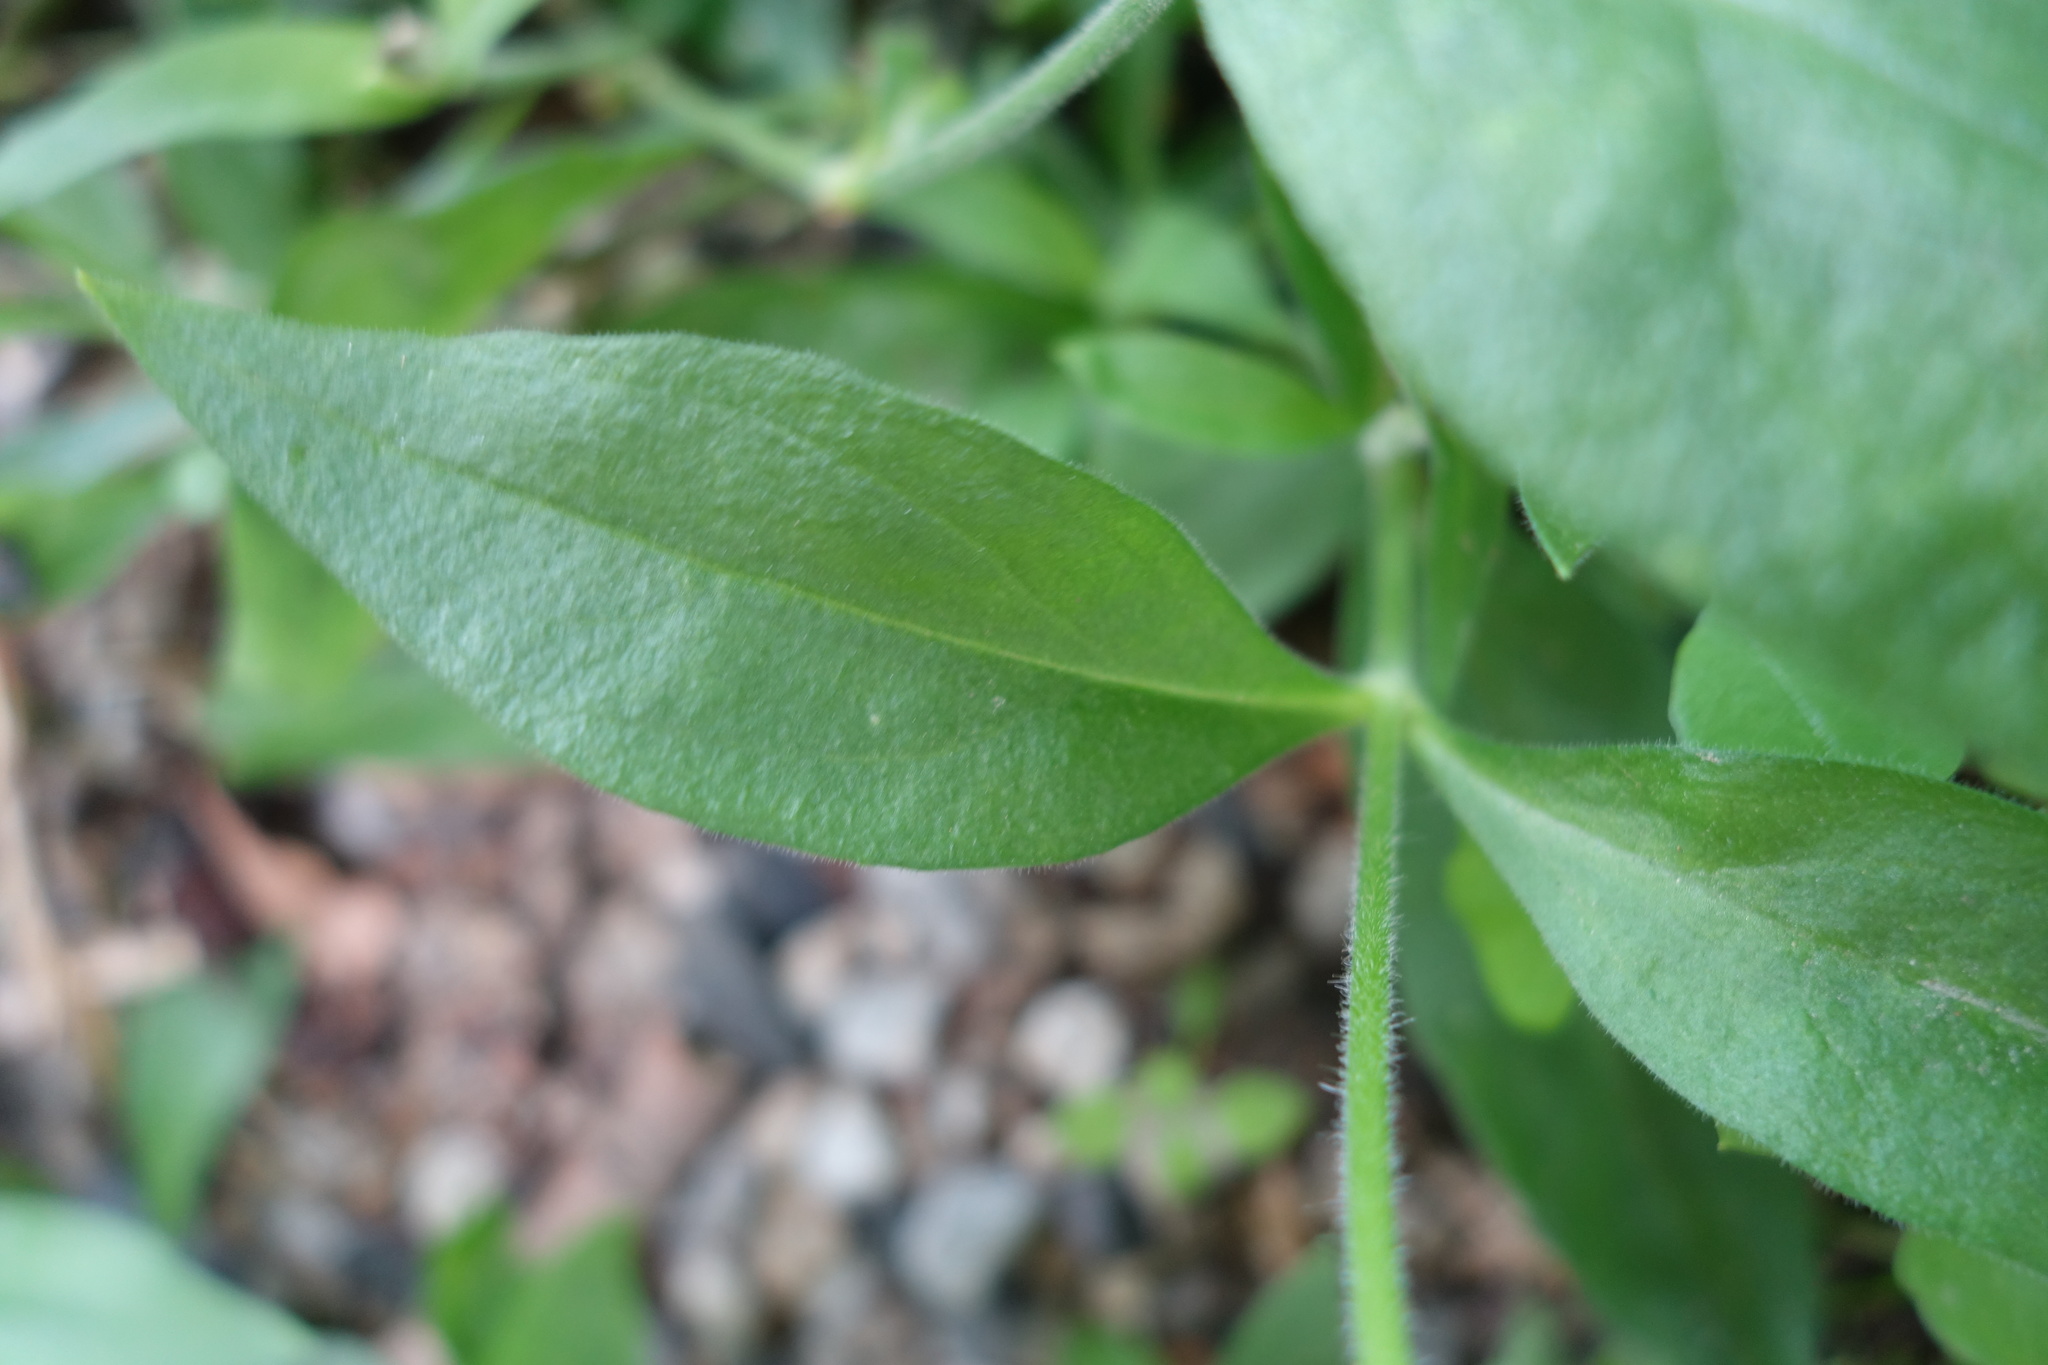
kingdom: Plantae
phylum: Tracheophyta
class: Magnoliopsida
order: Caryophyllales
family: Caryophyllaceae
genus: Silene
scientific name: Silene latifolia
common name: White campion
